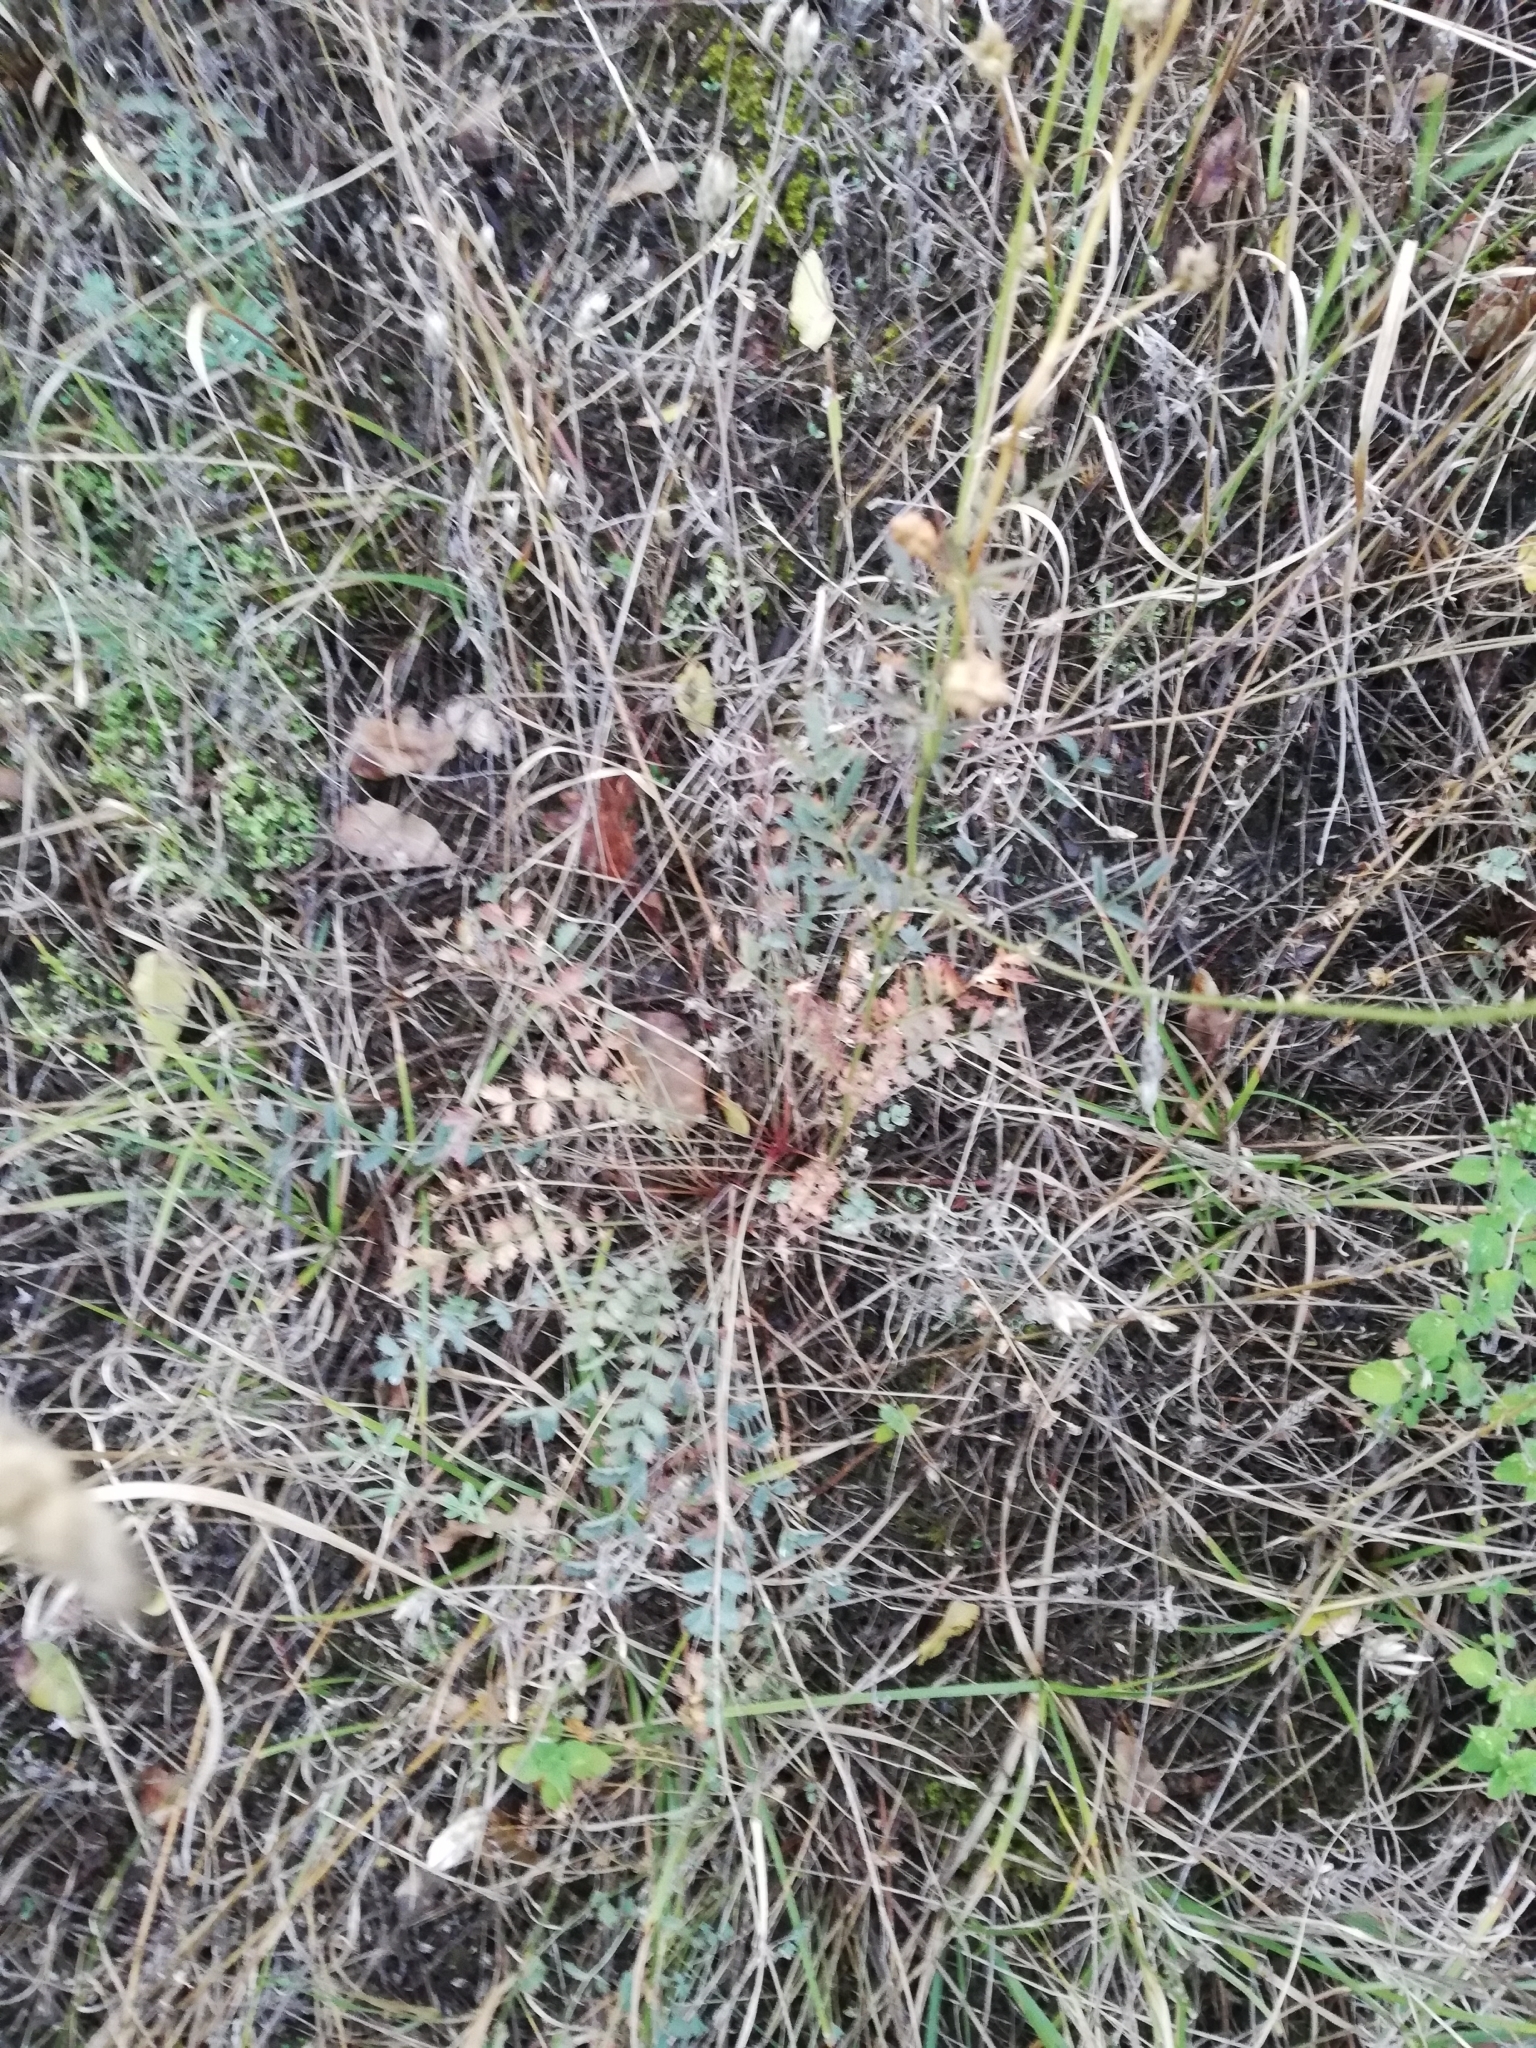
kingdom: Plantae
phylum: Tracheophyta
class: Magnoliopsida
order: Rosales
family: Rosaceae
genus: Poterium
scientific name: Poterium sanguisorba
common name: Salad burnet
